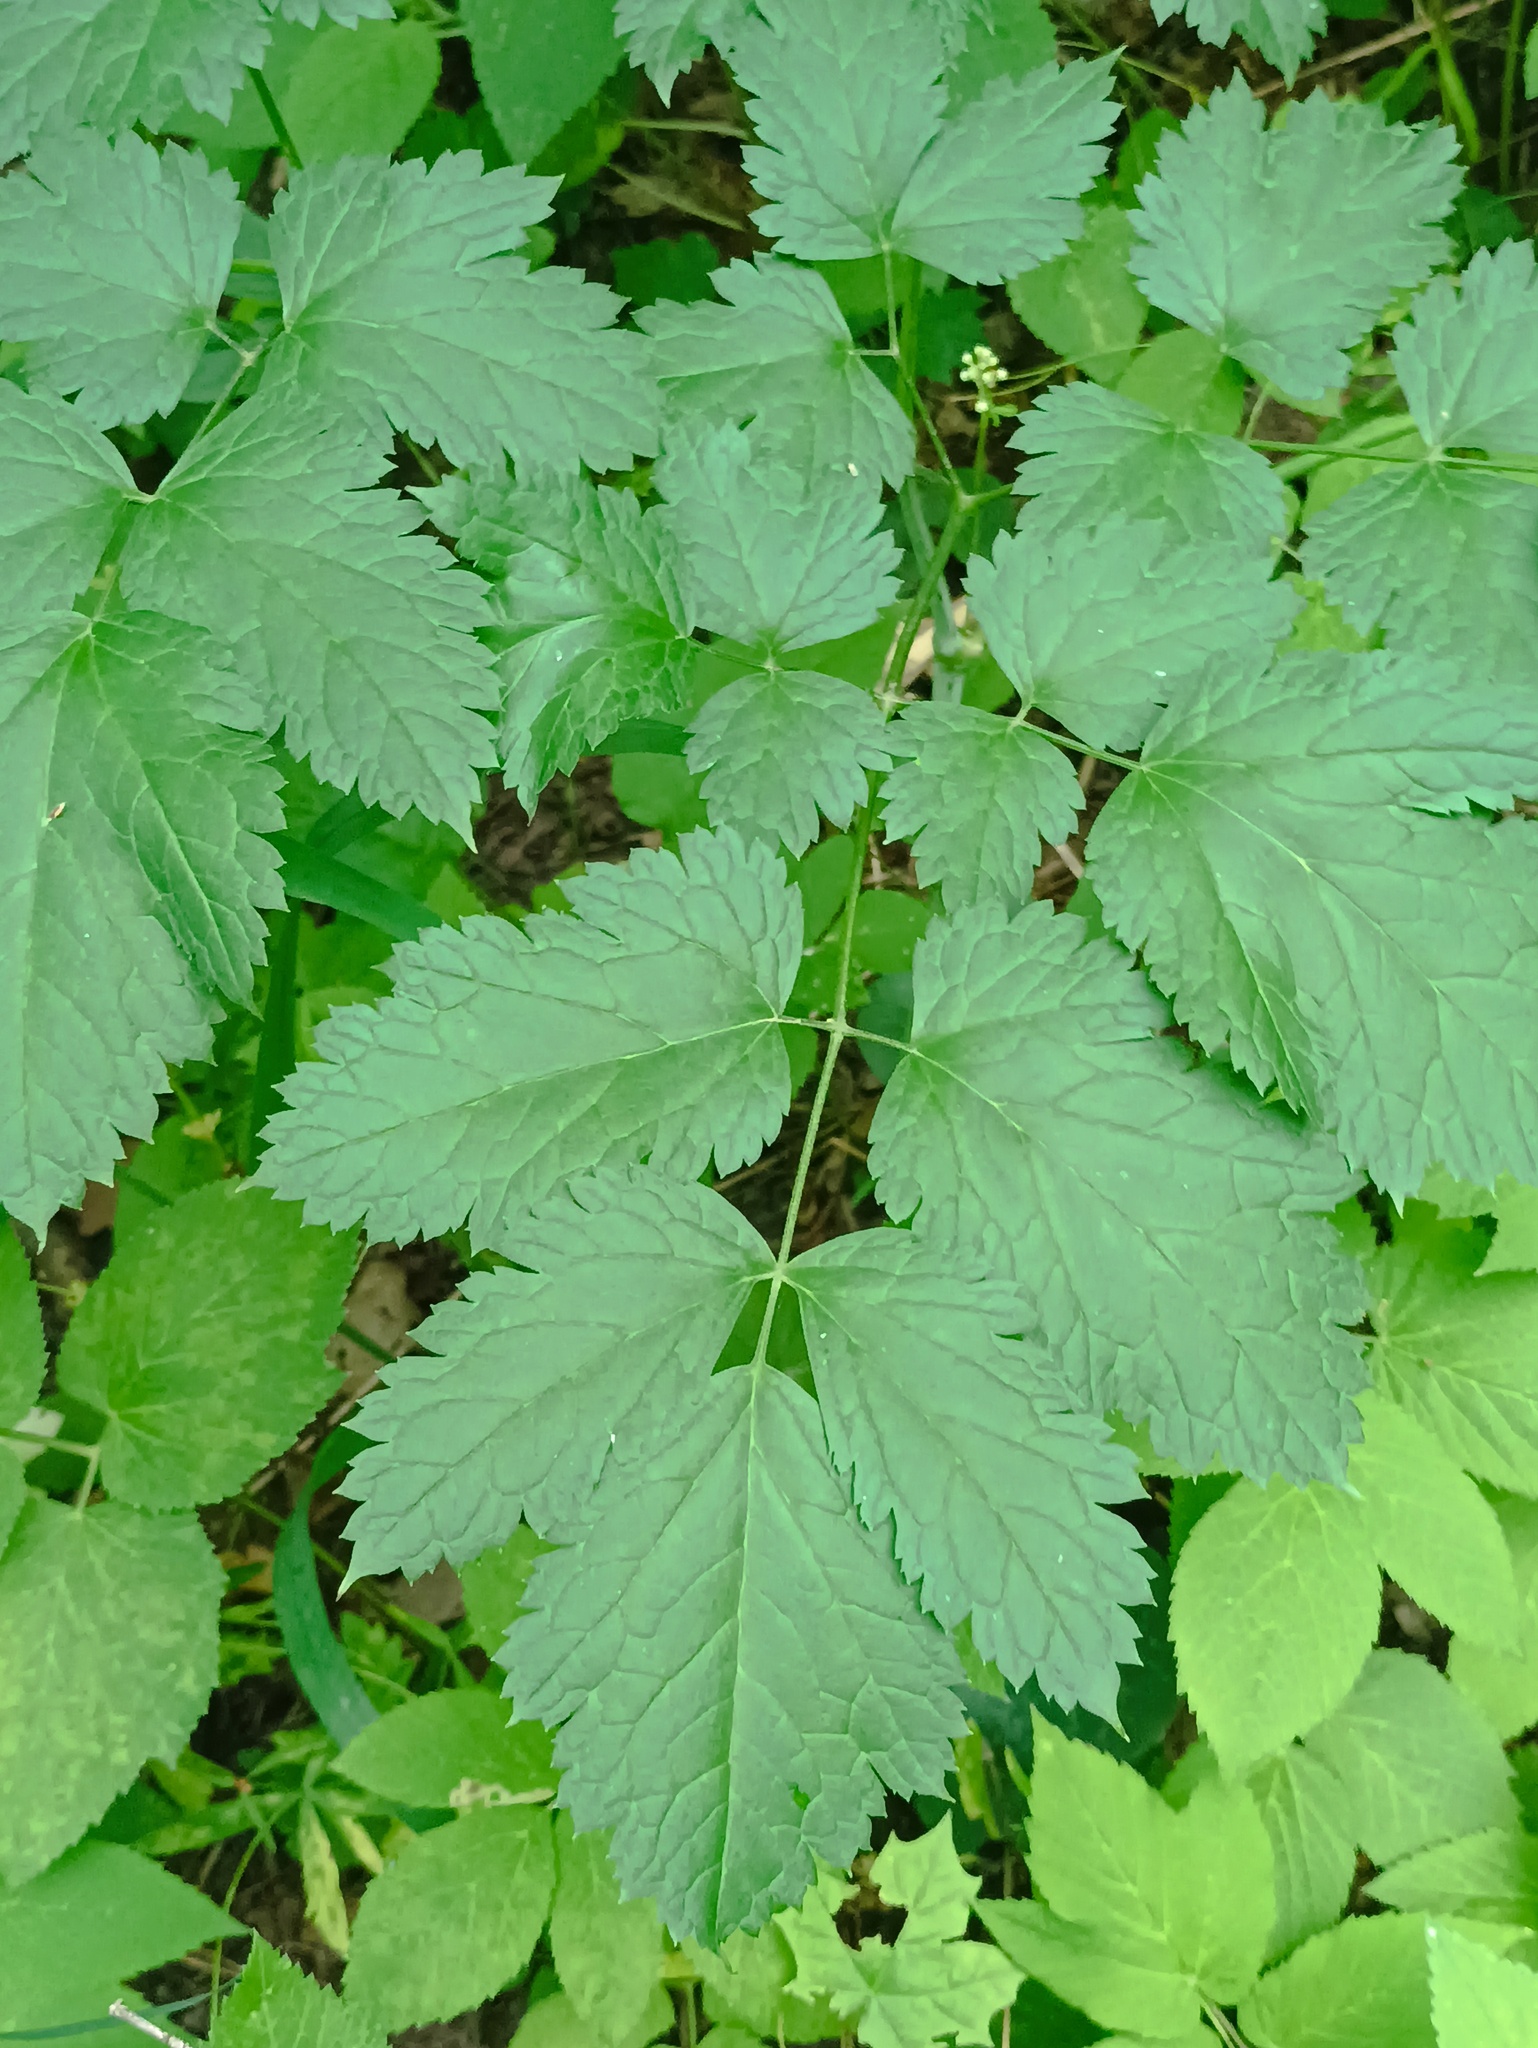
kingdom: Plantae
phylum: Tracheophyta
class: Magnoliopsida
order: Ranunculales
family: Ranunculaceae
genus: Actaea
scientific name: Actaea spicata
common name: Baneberry
